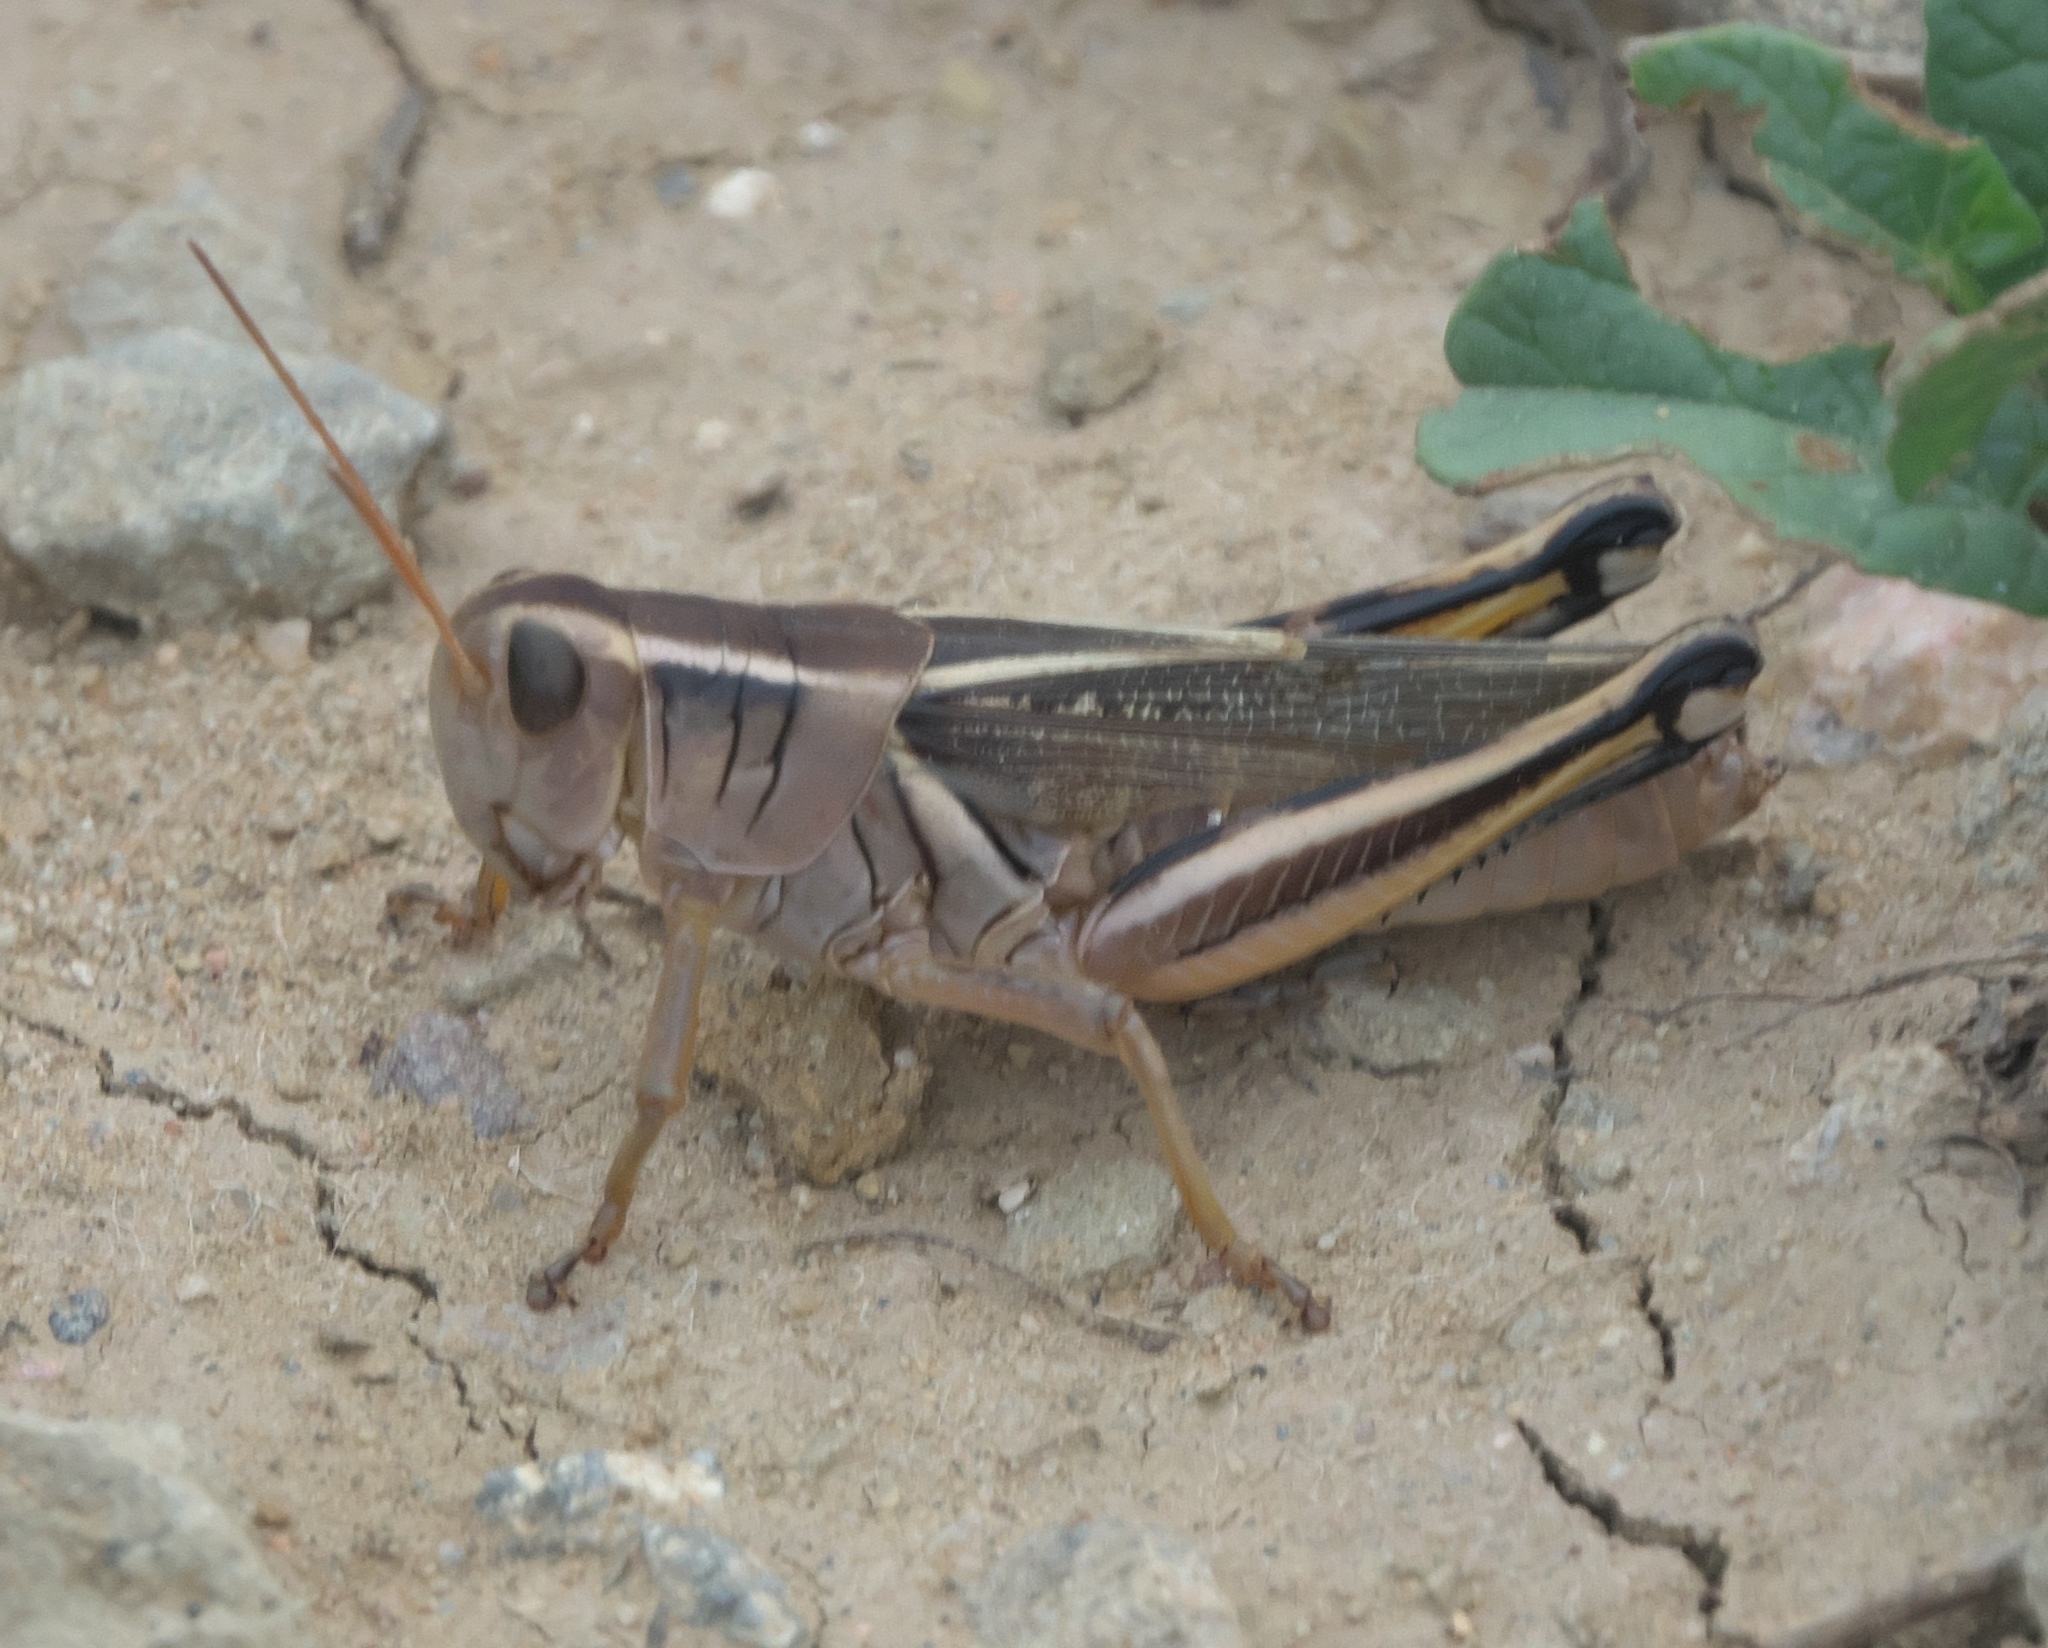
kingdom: Animalia
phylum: Arthropoda
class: Insecta
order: Orthoptera
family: Acrididae
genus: Melanoplus
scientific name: Melanoplus bivittatus
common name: Two-striped grasshopper
